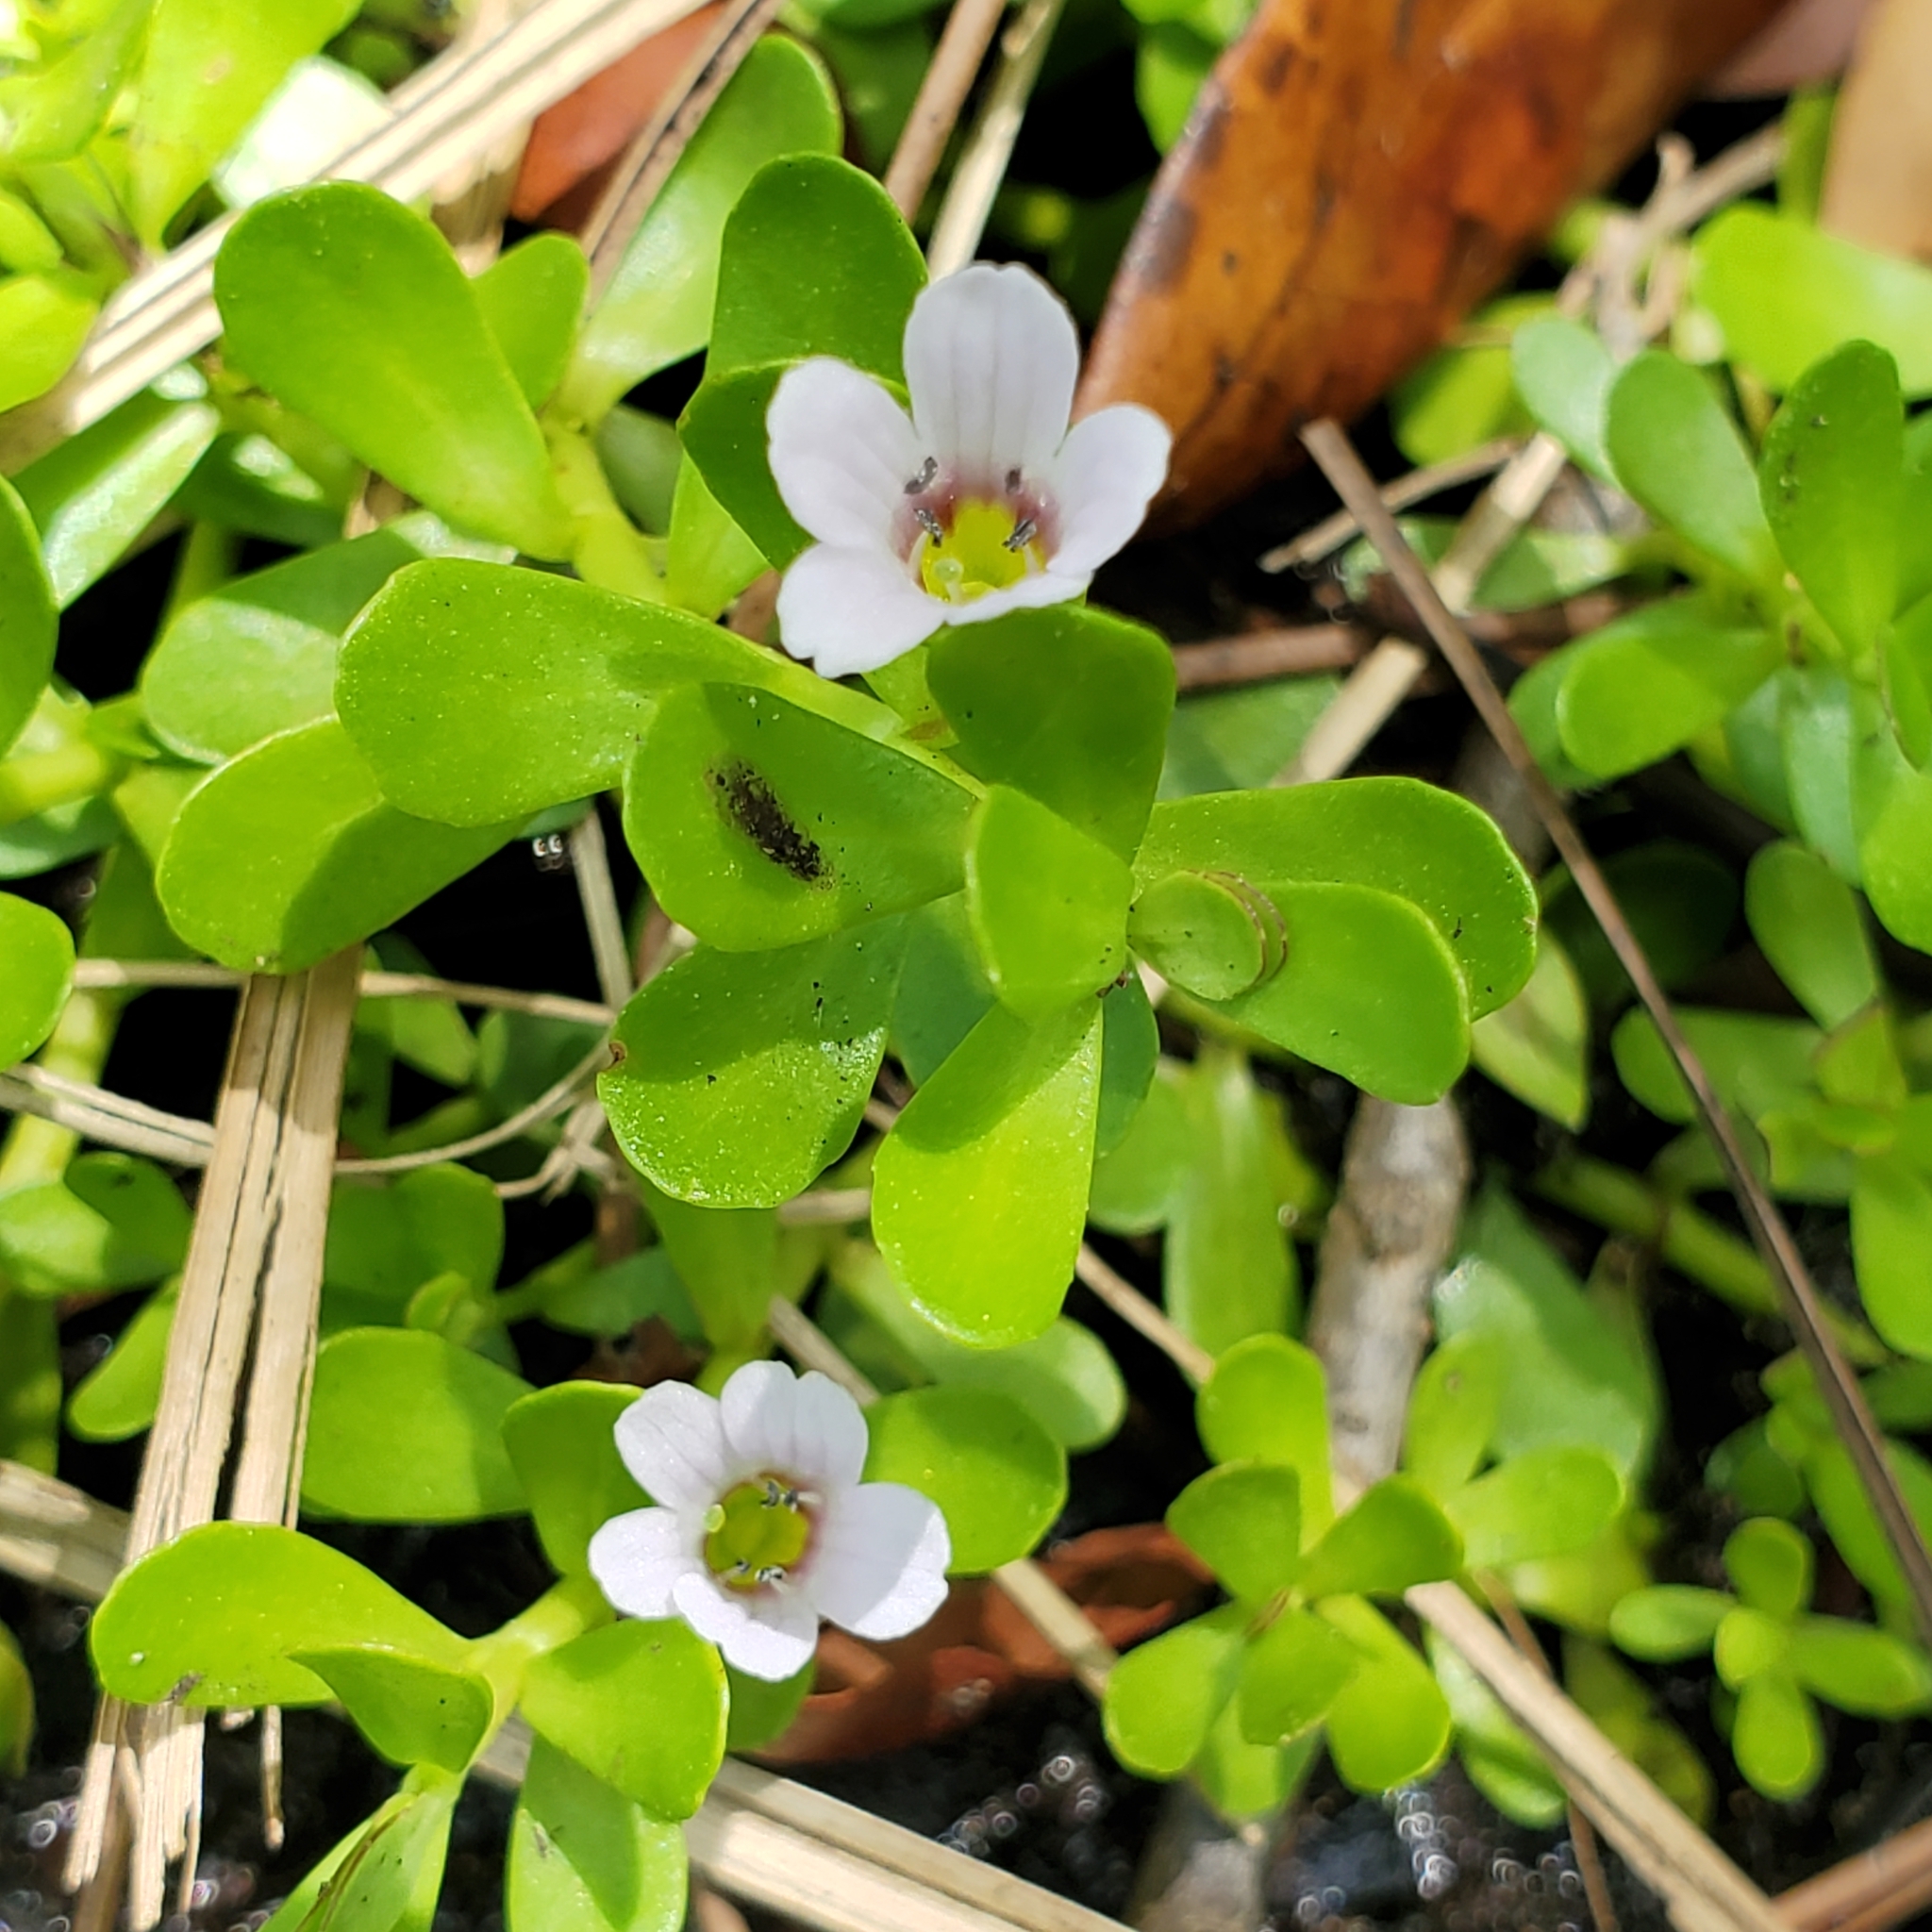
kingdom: Plantae
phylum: Tracheophyta
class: Magnoliopsida
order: Lamiales
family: Plantaginaceae
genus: Bacopa
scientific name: Bacopa monnieri
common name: Indian-pennywort
